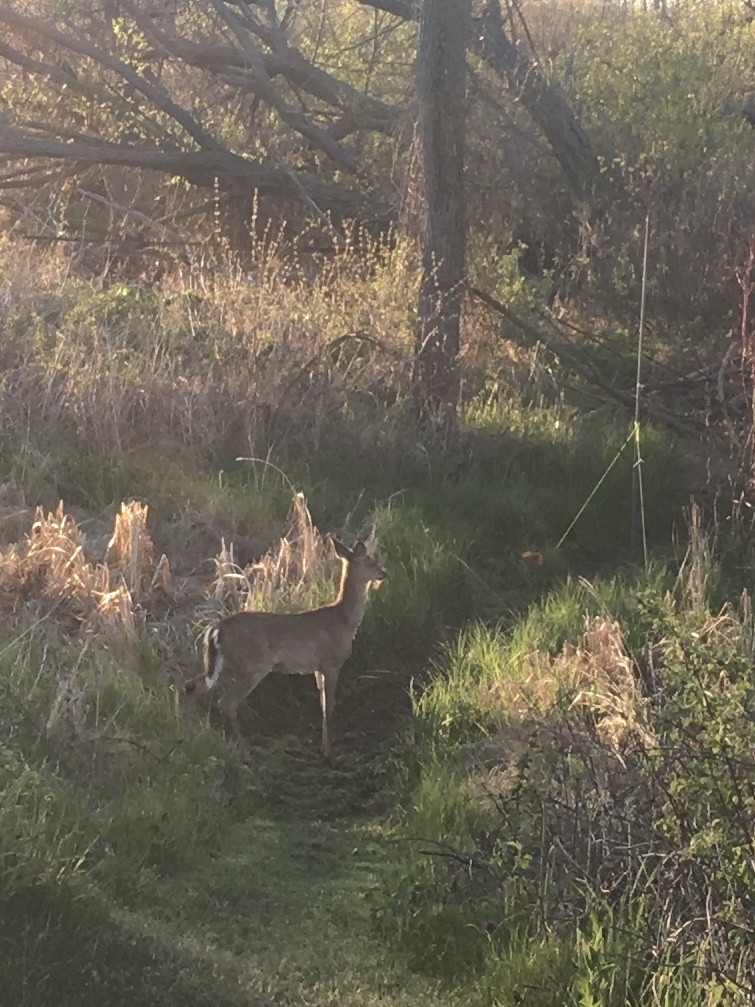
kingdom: Animalia
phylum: Chordata
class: Mammalia
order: Artiodactyla
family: Cervidae
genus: Odocoileus
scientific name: Odocoileus virginianus
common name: White-tailed deer
